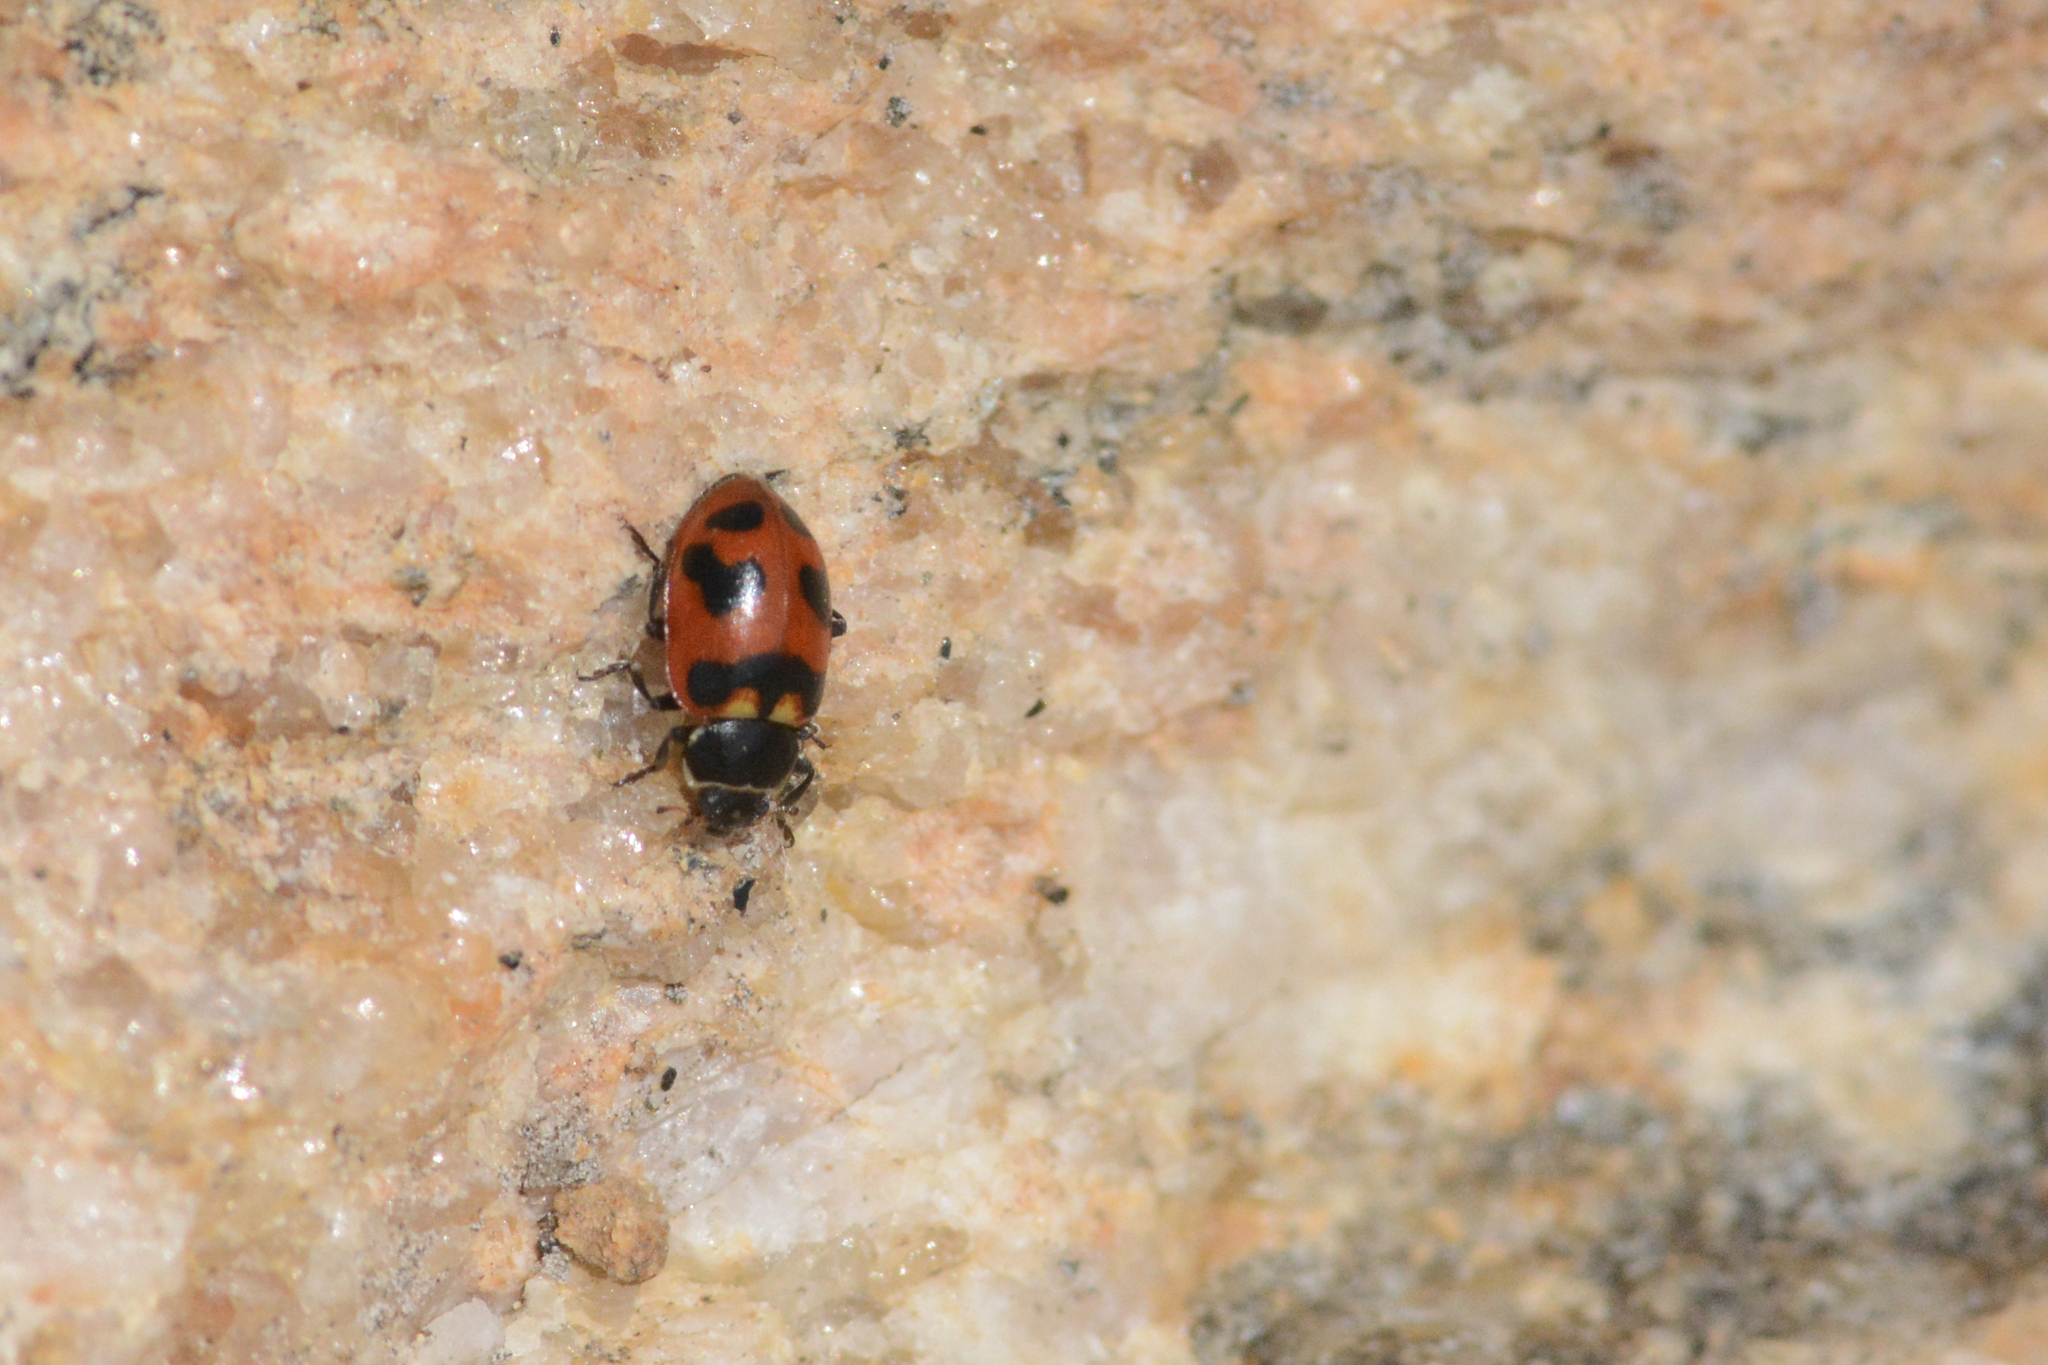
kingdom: Animalia
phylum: Arthropoda
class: Insecta
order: Coleoptera
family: Coccinellidae
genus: Hippodamia
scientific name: Hippodamia oregonensis
